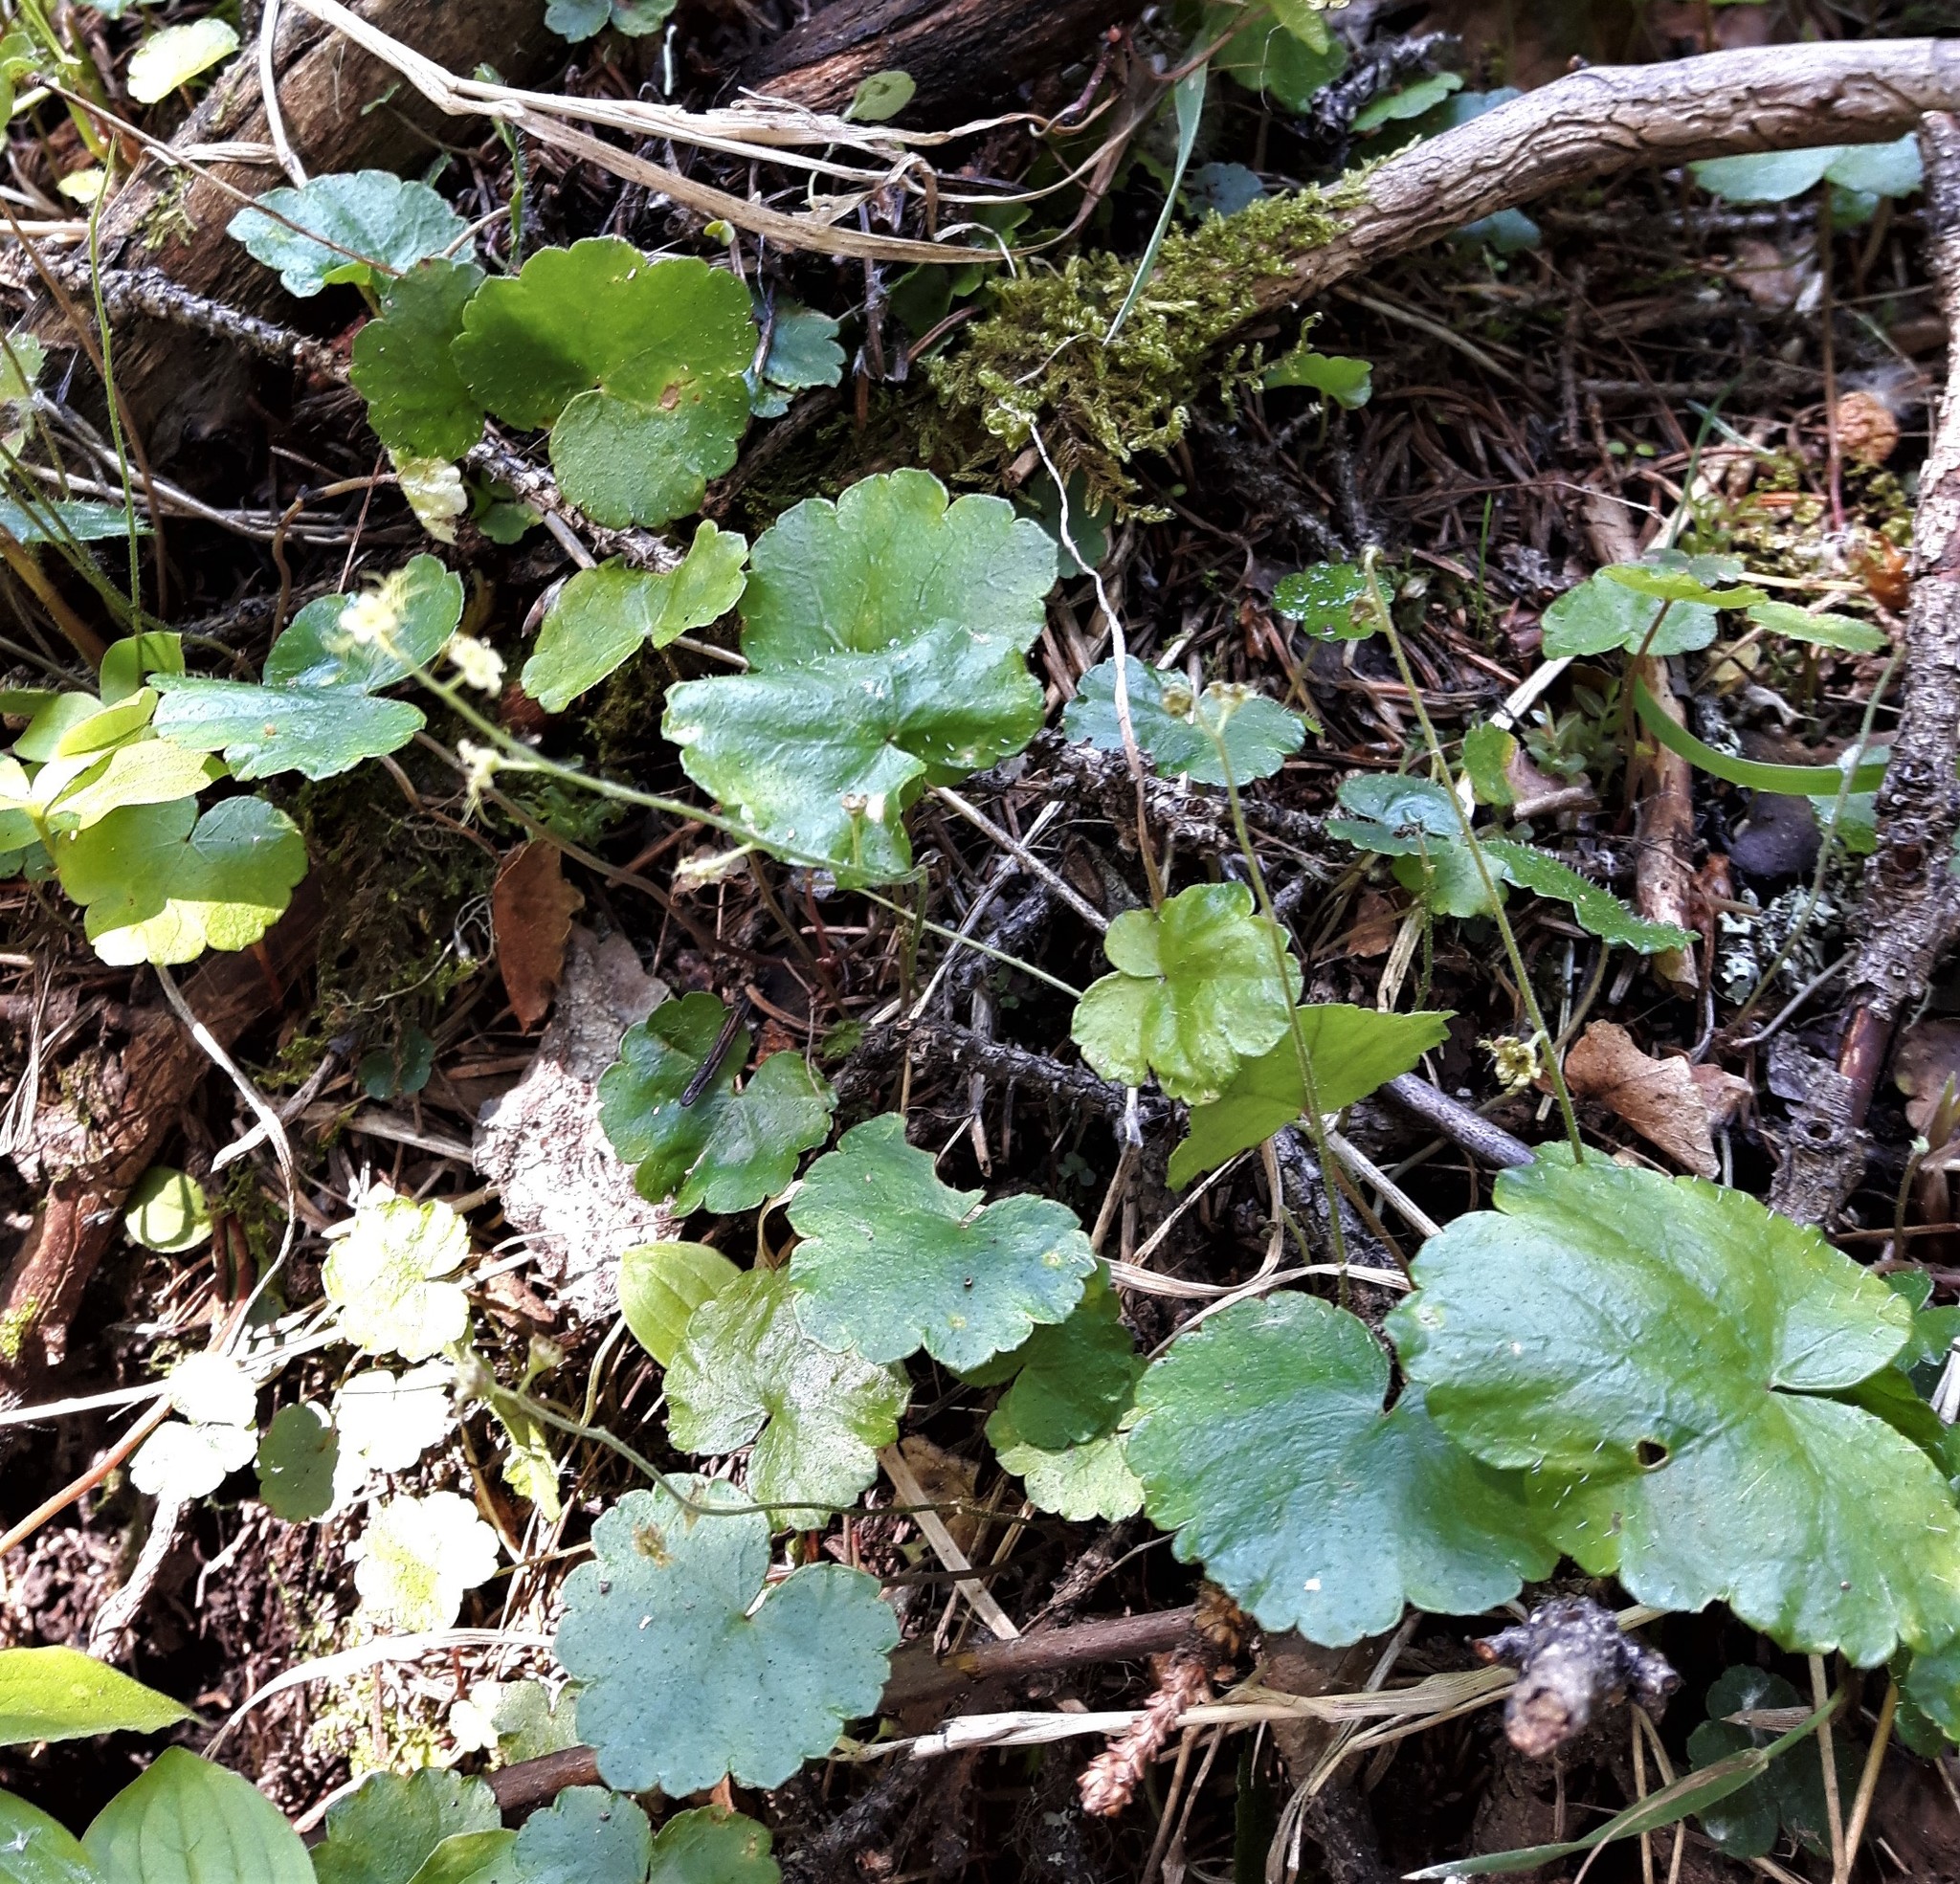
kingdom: Plantae
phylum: Tracheophyta
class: Magnoliopsida
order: Saxifragales
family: Saxifragaceae
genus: Mitella
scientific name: Mitella nuda
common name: Bare-stemmed bishop's-cap
